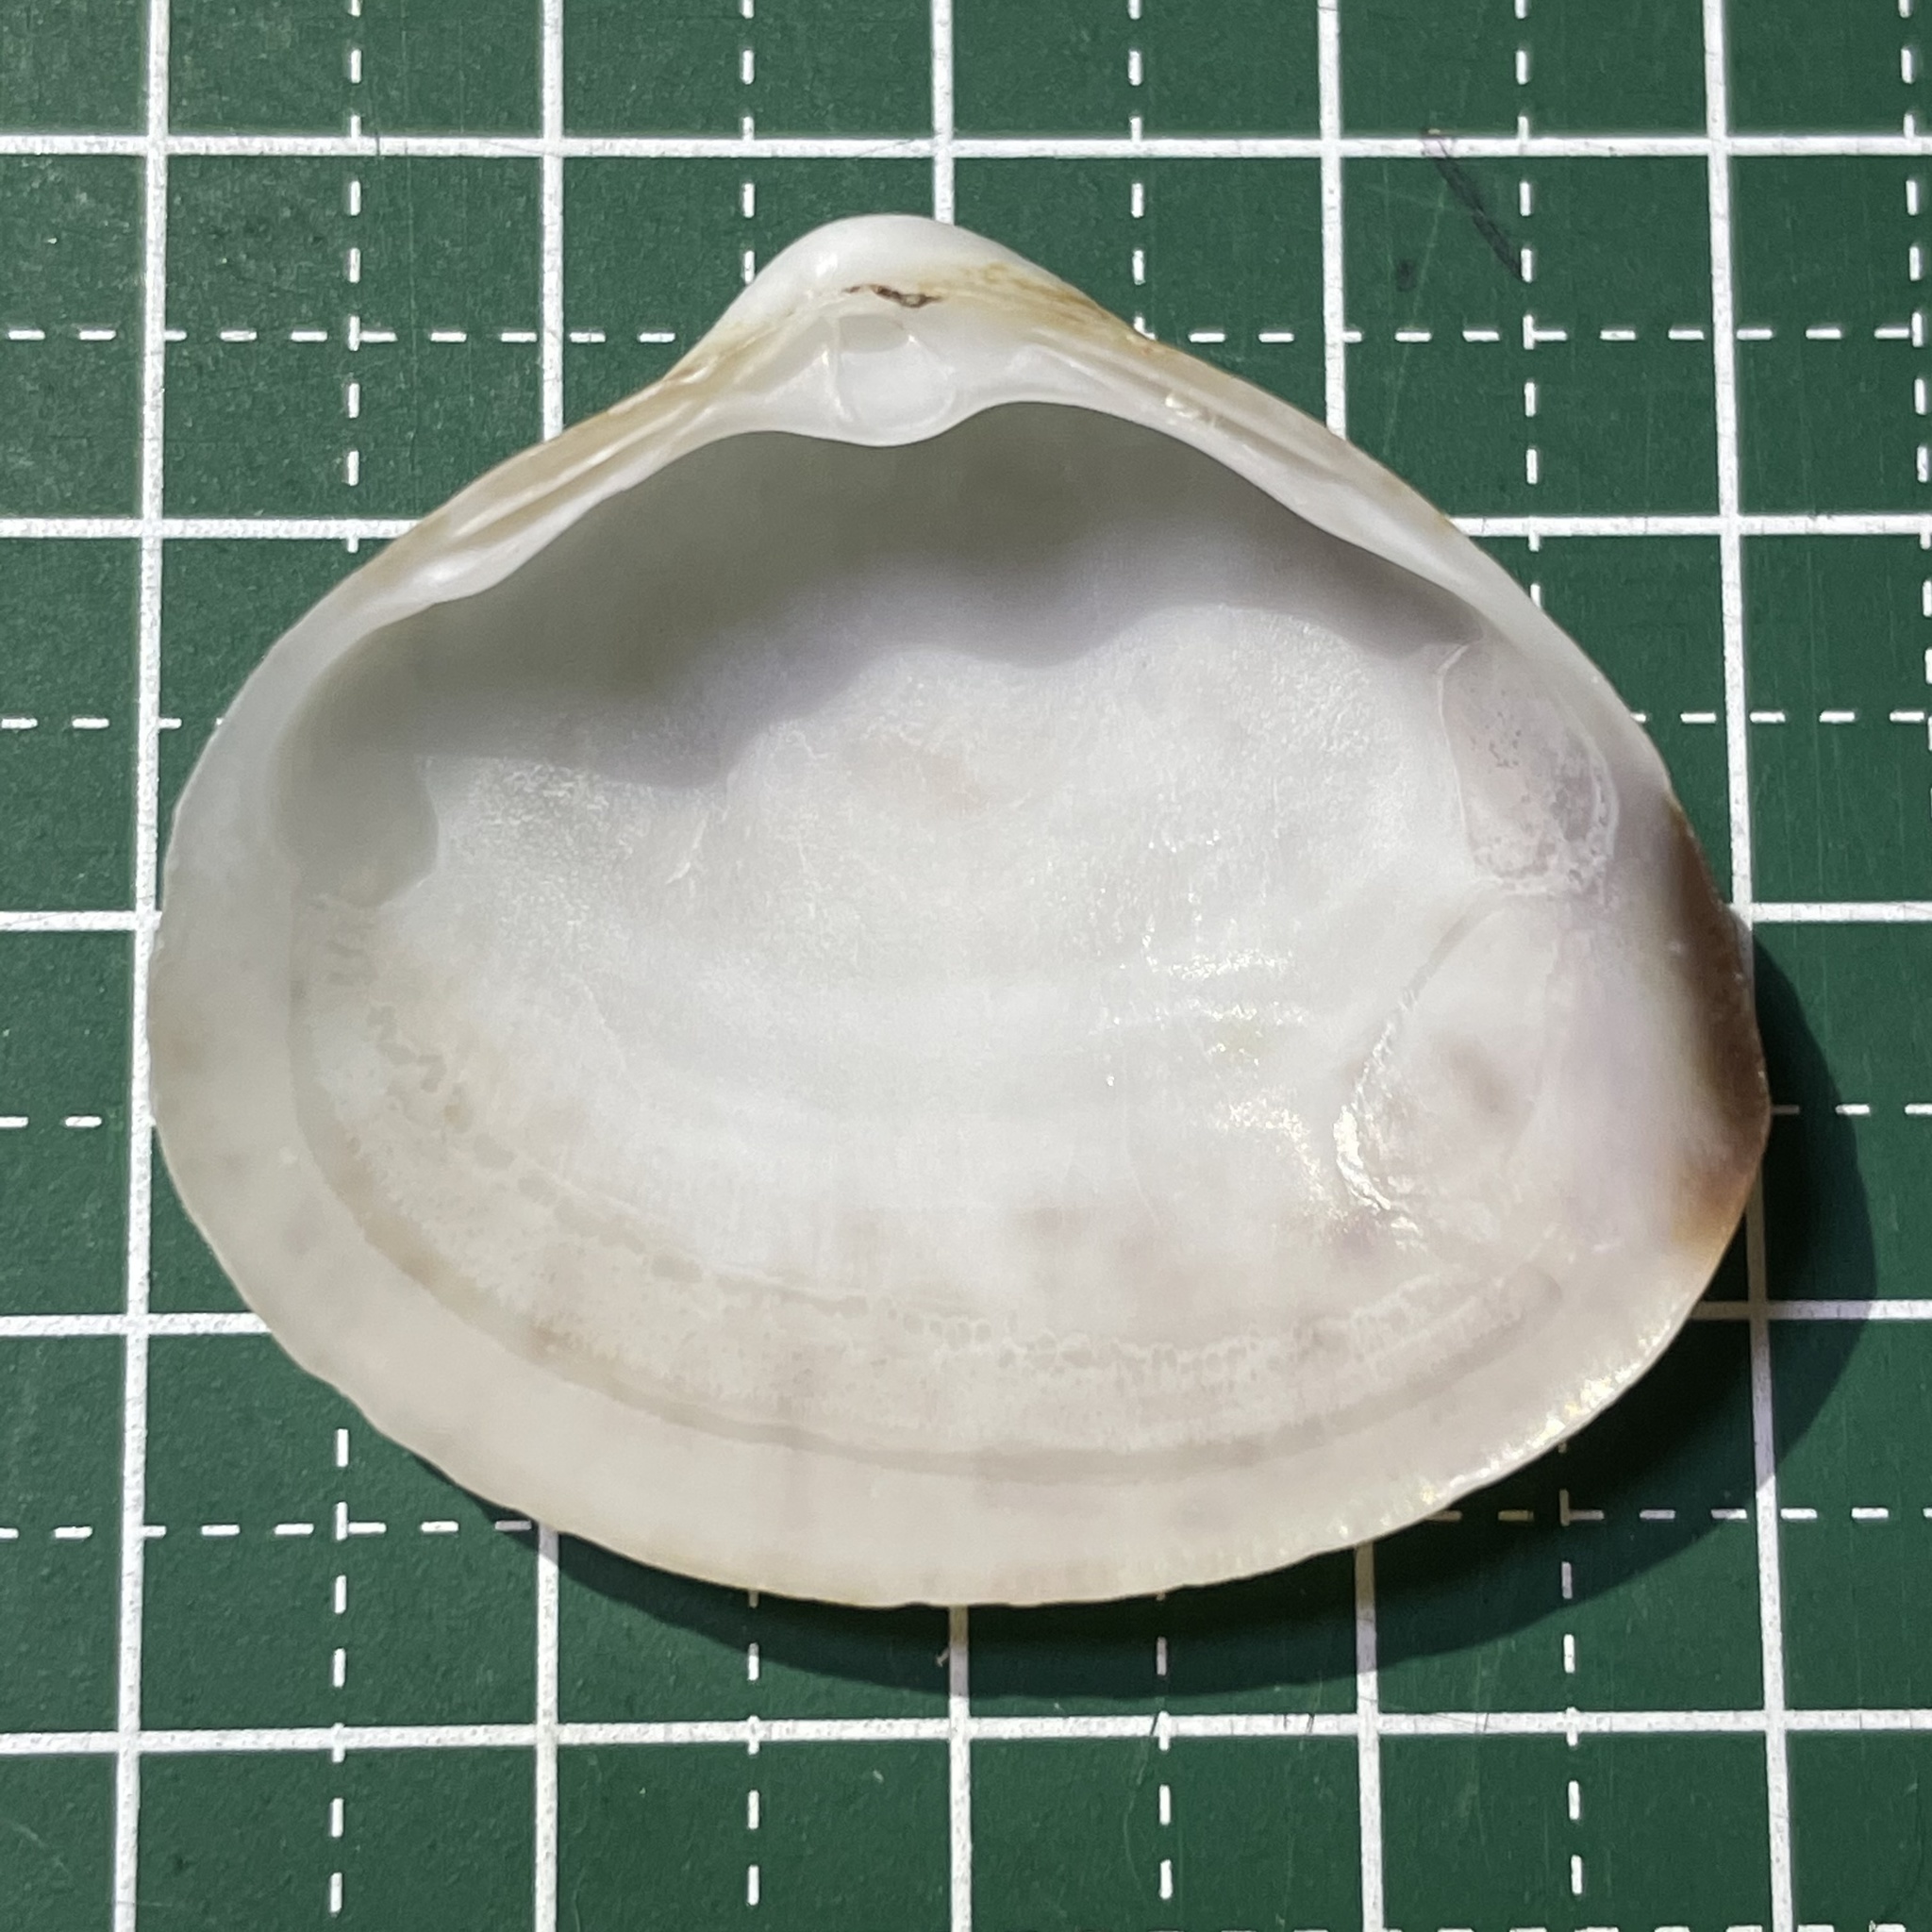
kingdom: Animalia
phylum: Mollusca
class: Bivalvia
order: Venerida
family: Mactridae
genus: Mactra
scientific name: Mactra maculata
